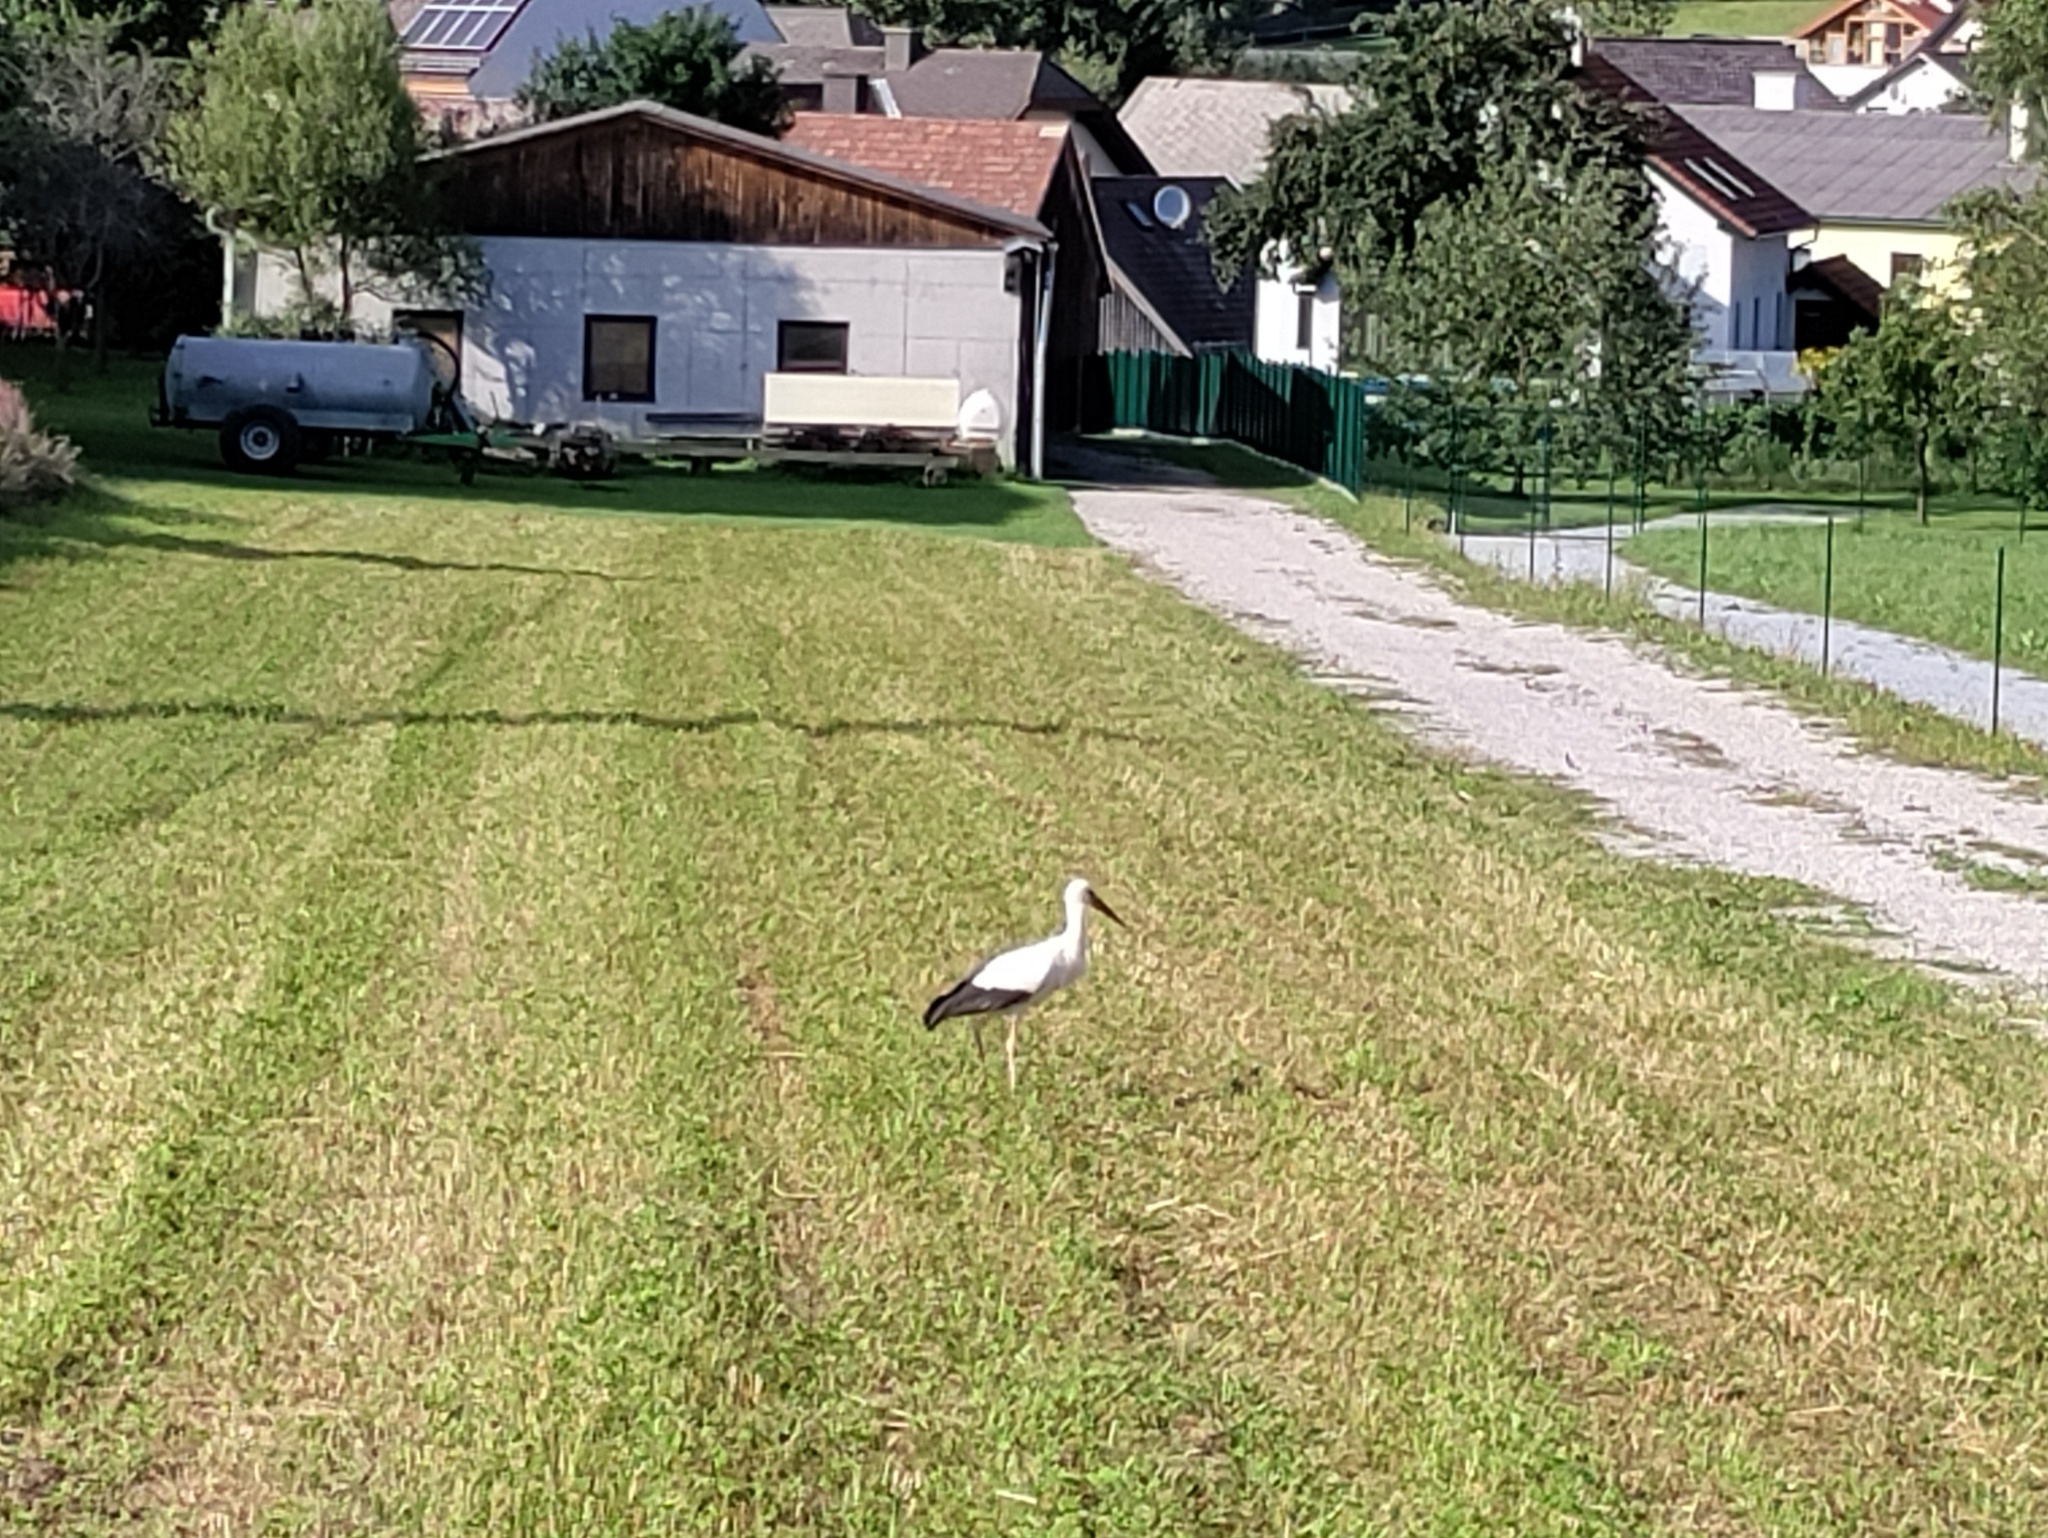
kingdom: Animalia
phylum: Chordata
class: Aves
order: Ciconiiformes
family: Ciconiidae
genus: Ciconia
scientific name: Ciconia ciconia
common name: White stork
